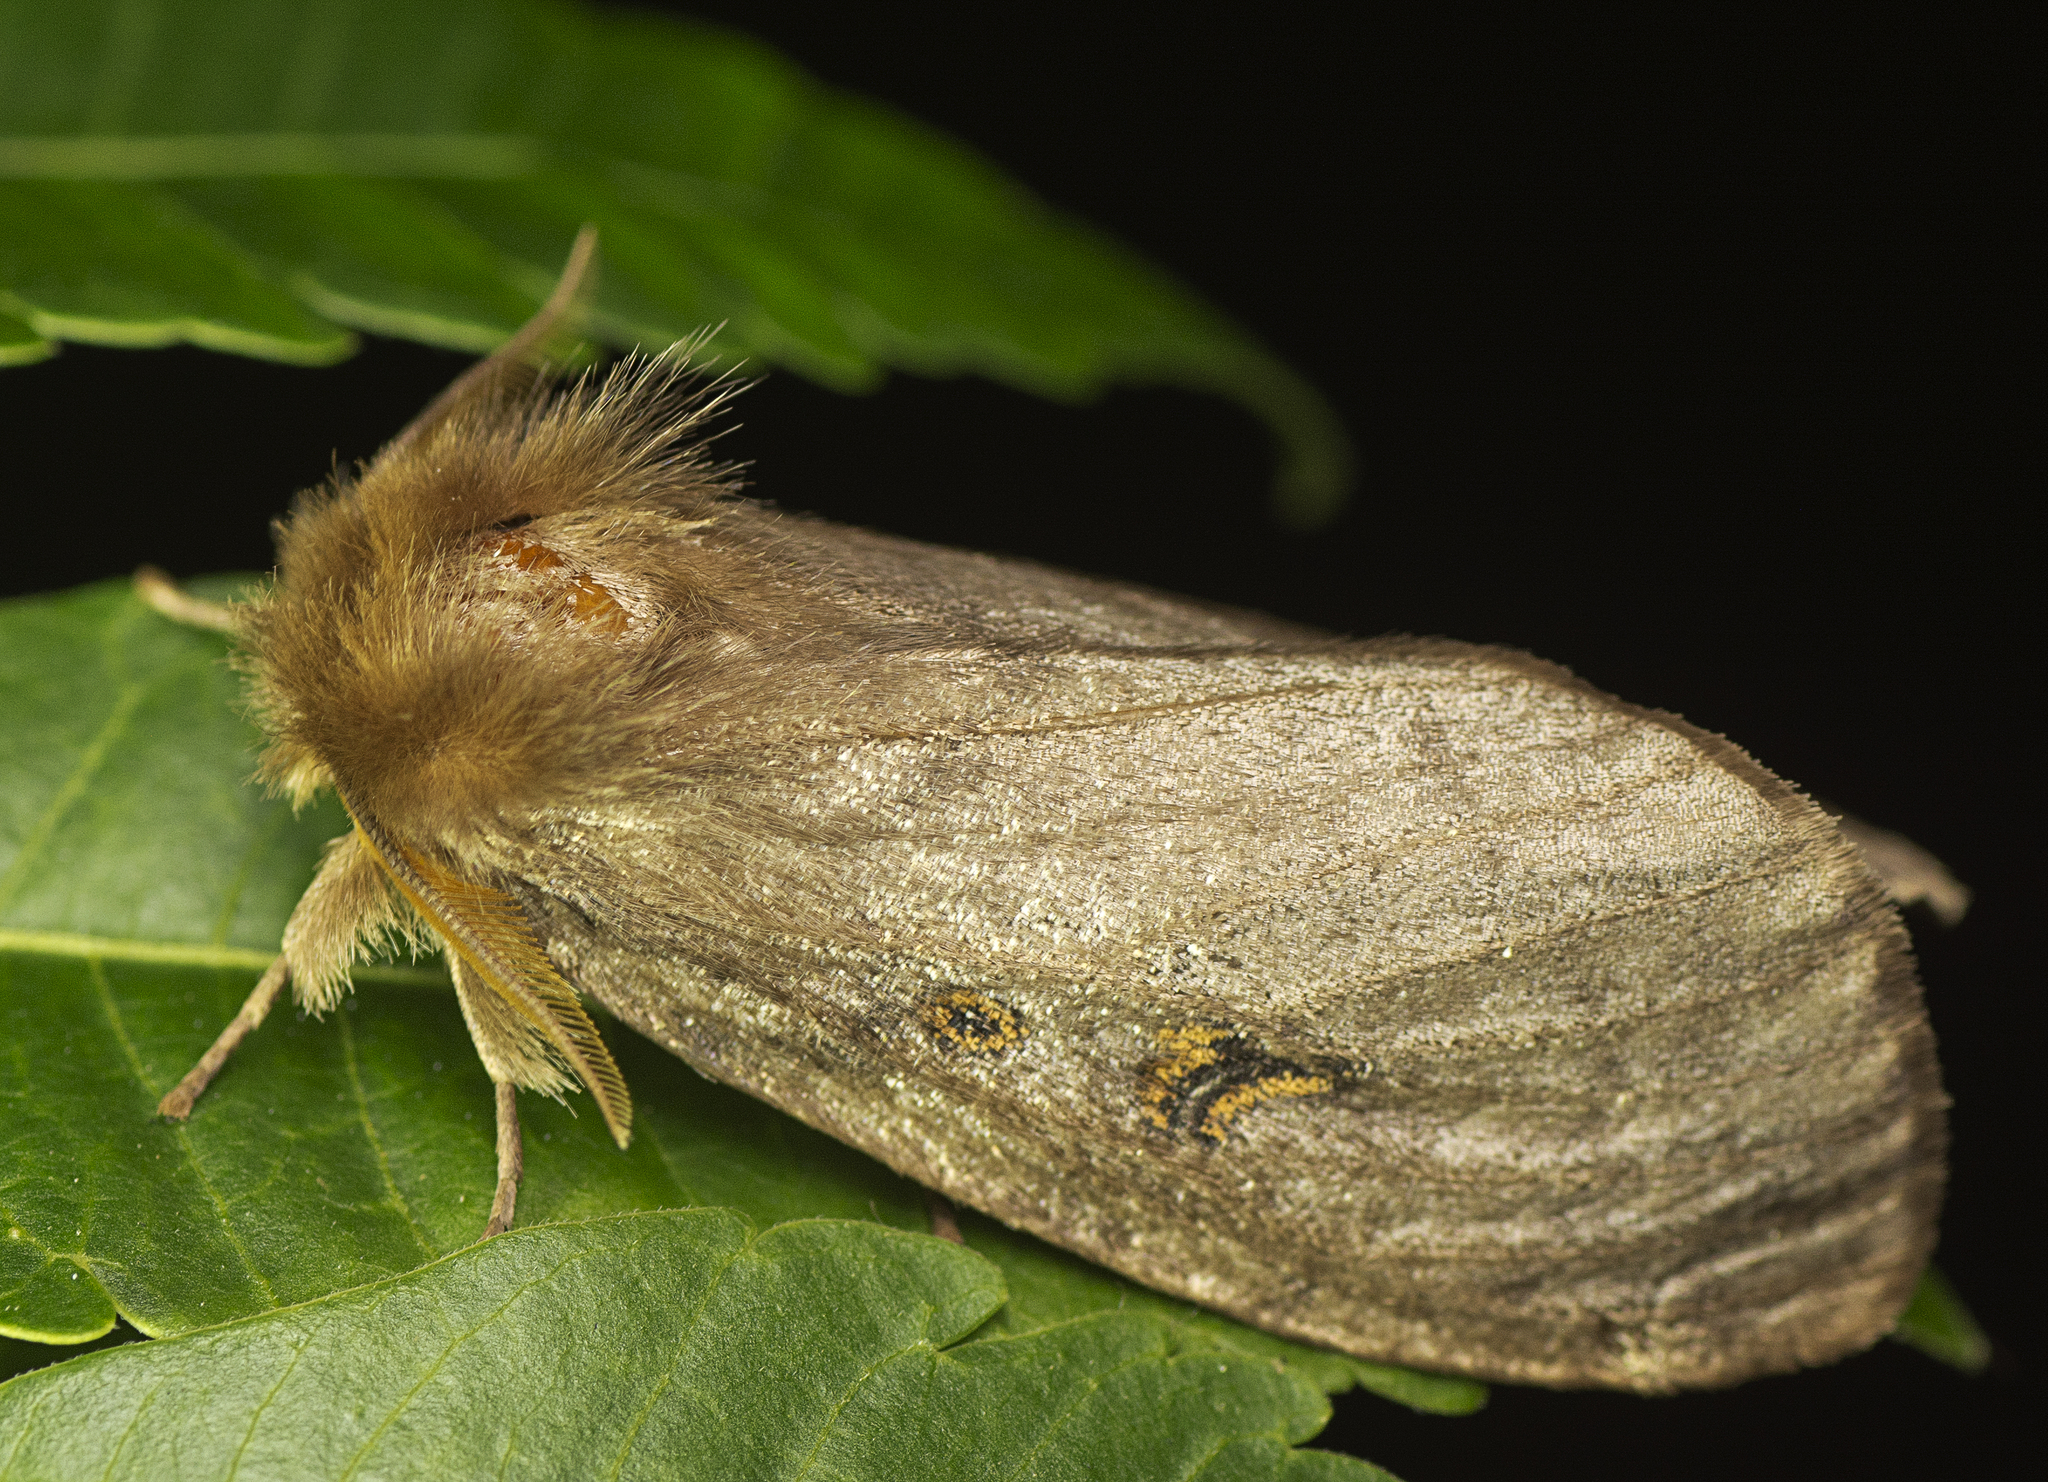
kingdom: Animalia
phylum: Arthropoda
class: Insecta
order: Lepidoptera
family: Erebidae
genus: Leptocneria
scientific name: Leptocneria reducta
